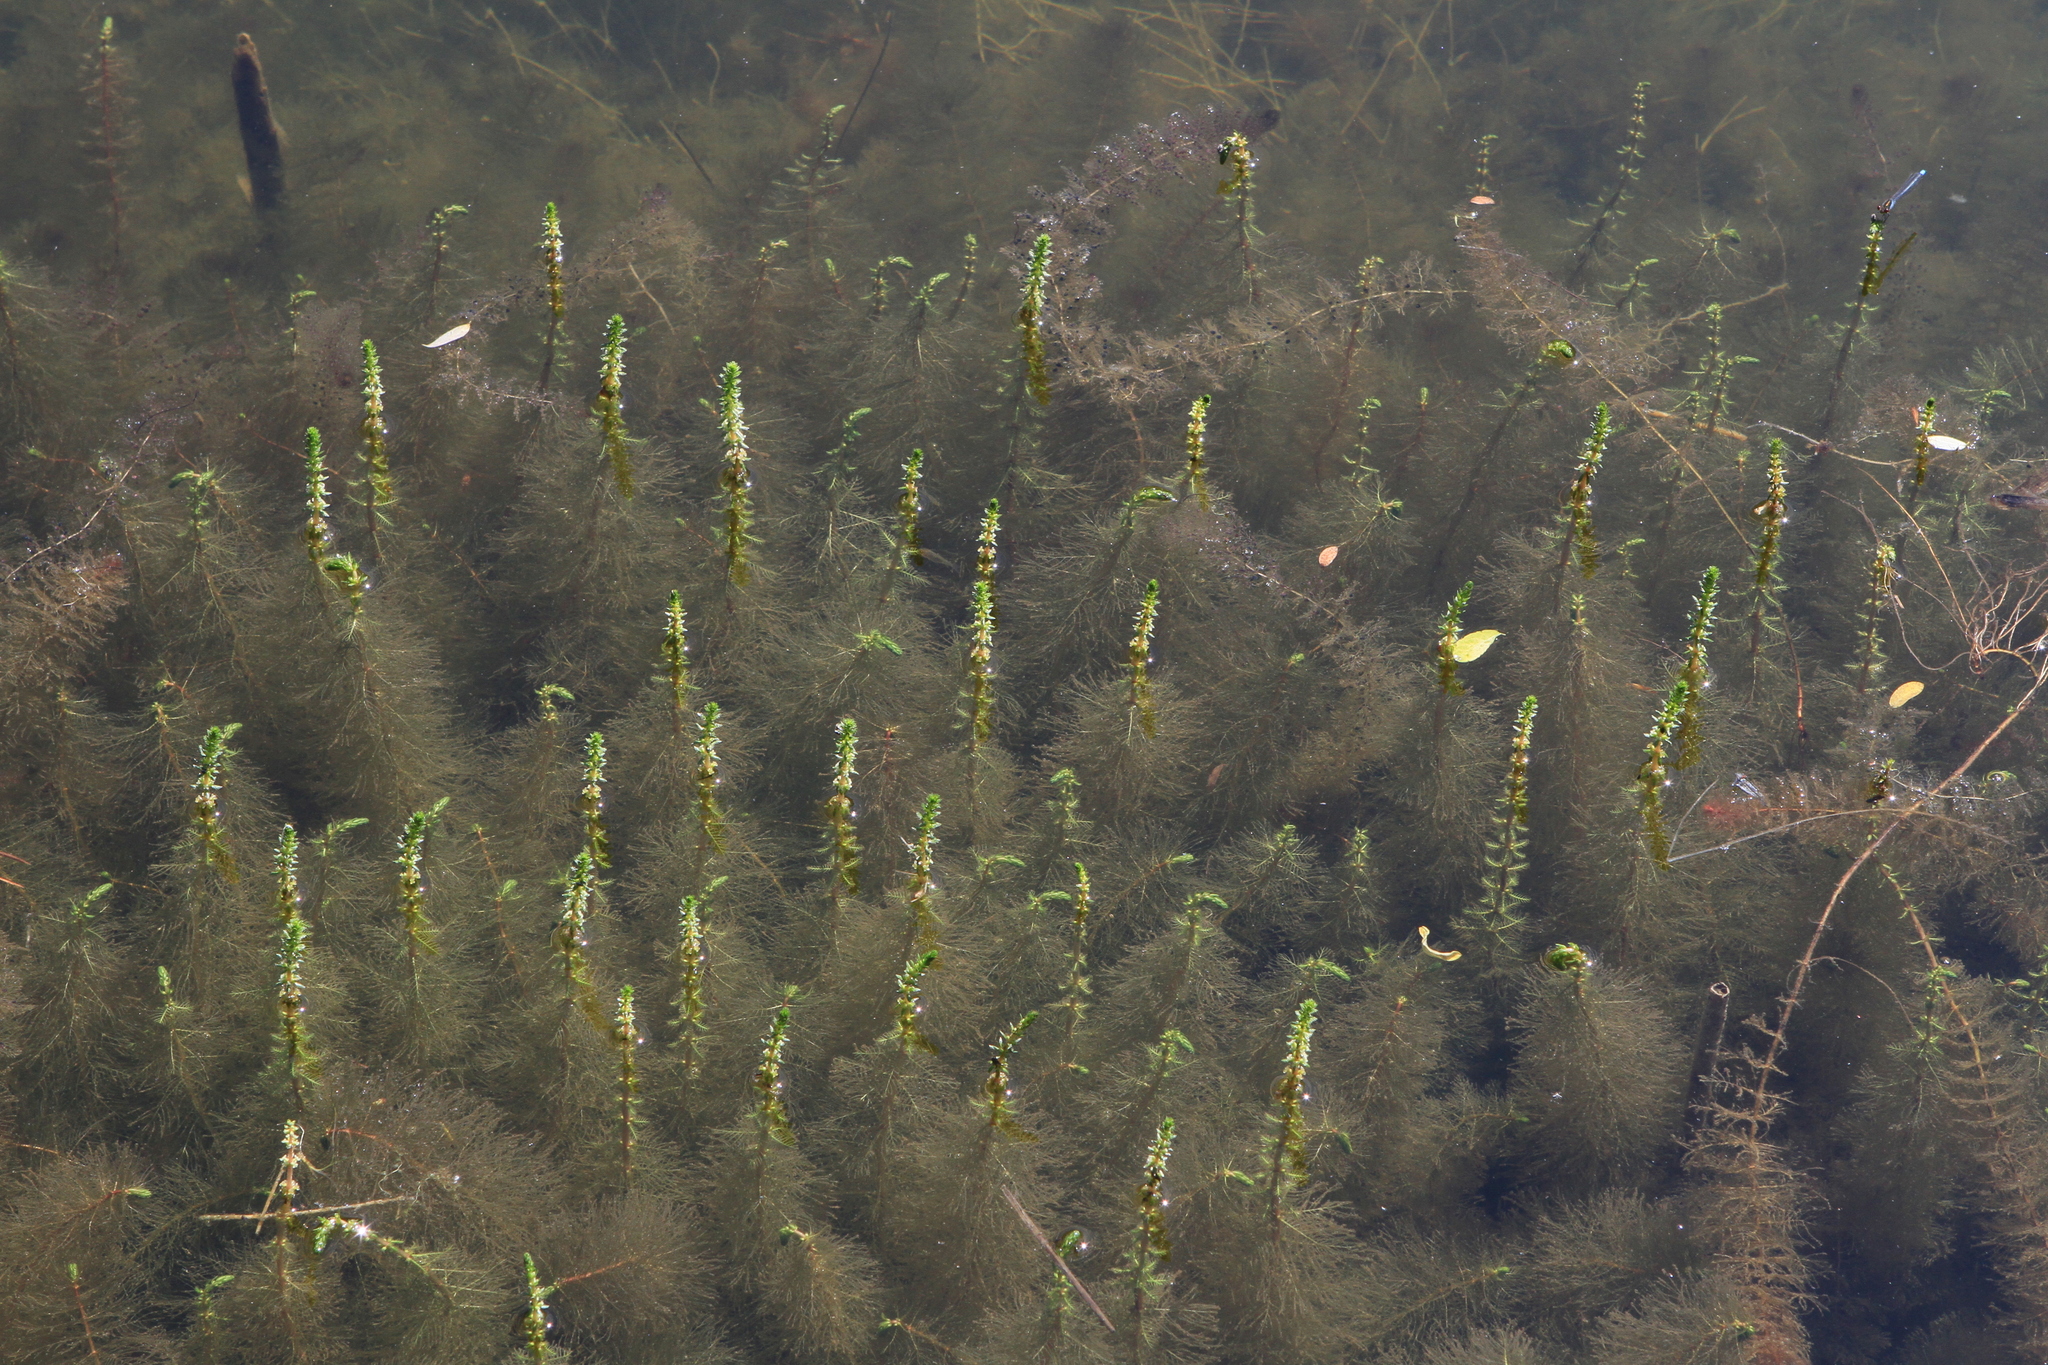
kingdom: Plantae
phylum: Tracheophyta
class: Magnoliopsida
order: Saxifragales
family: Haloragaceae
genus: Myriophyllum
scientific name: Myriophyllum verticillatum
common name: Whorled water-milfoil
